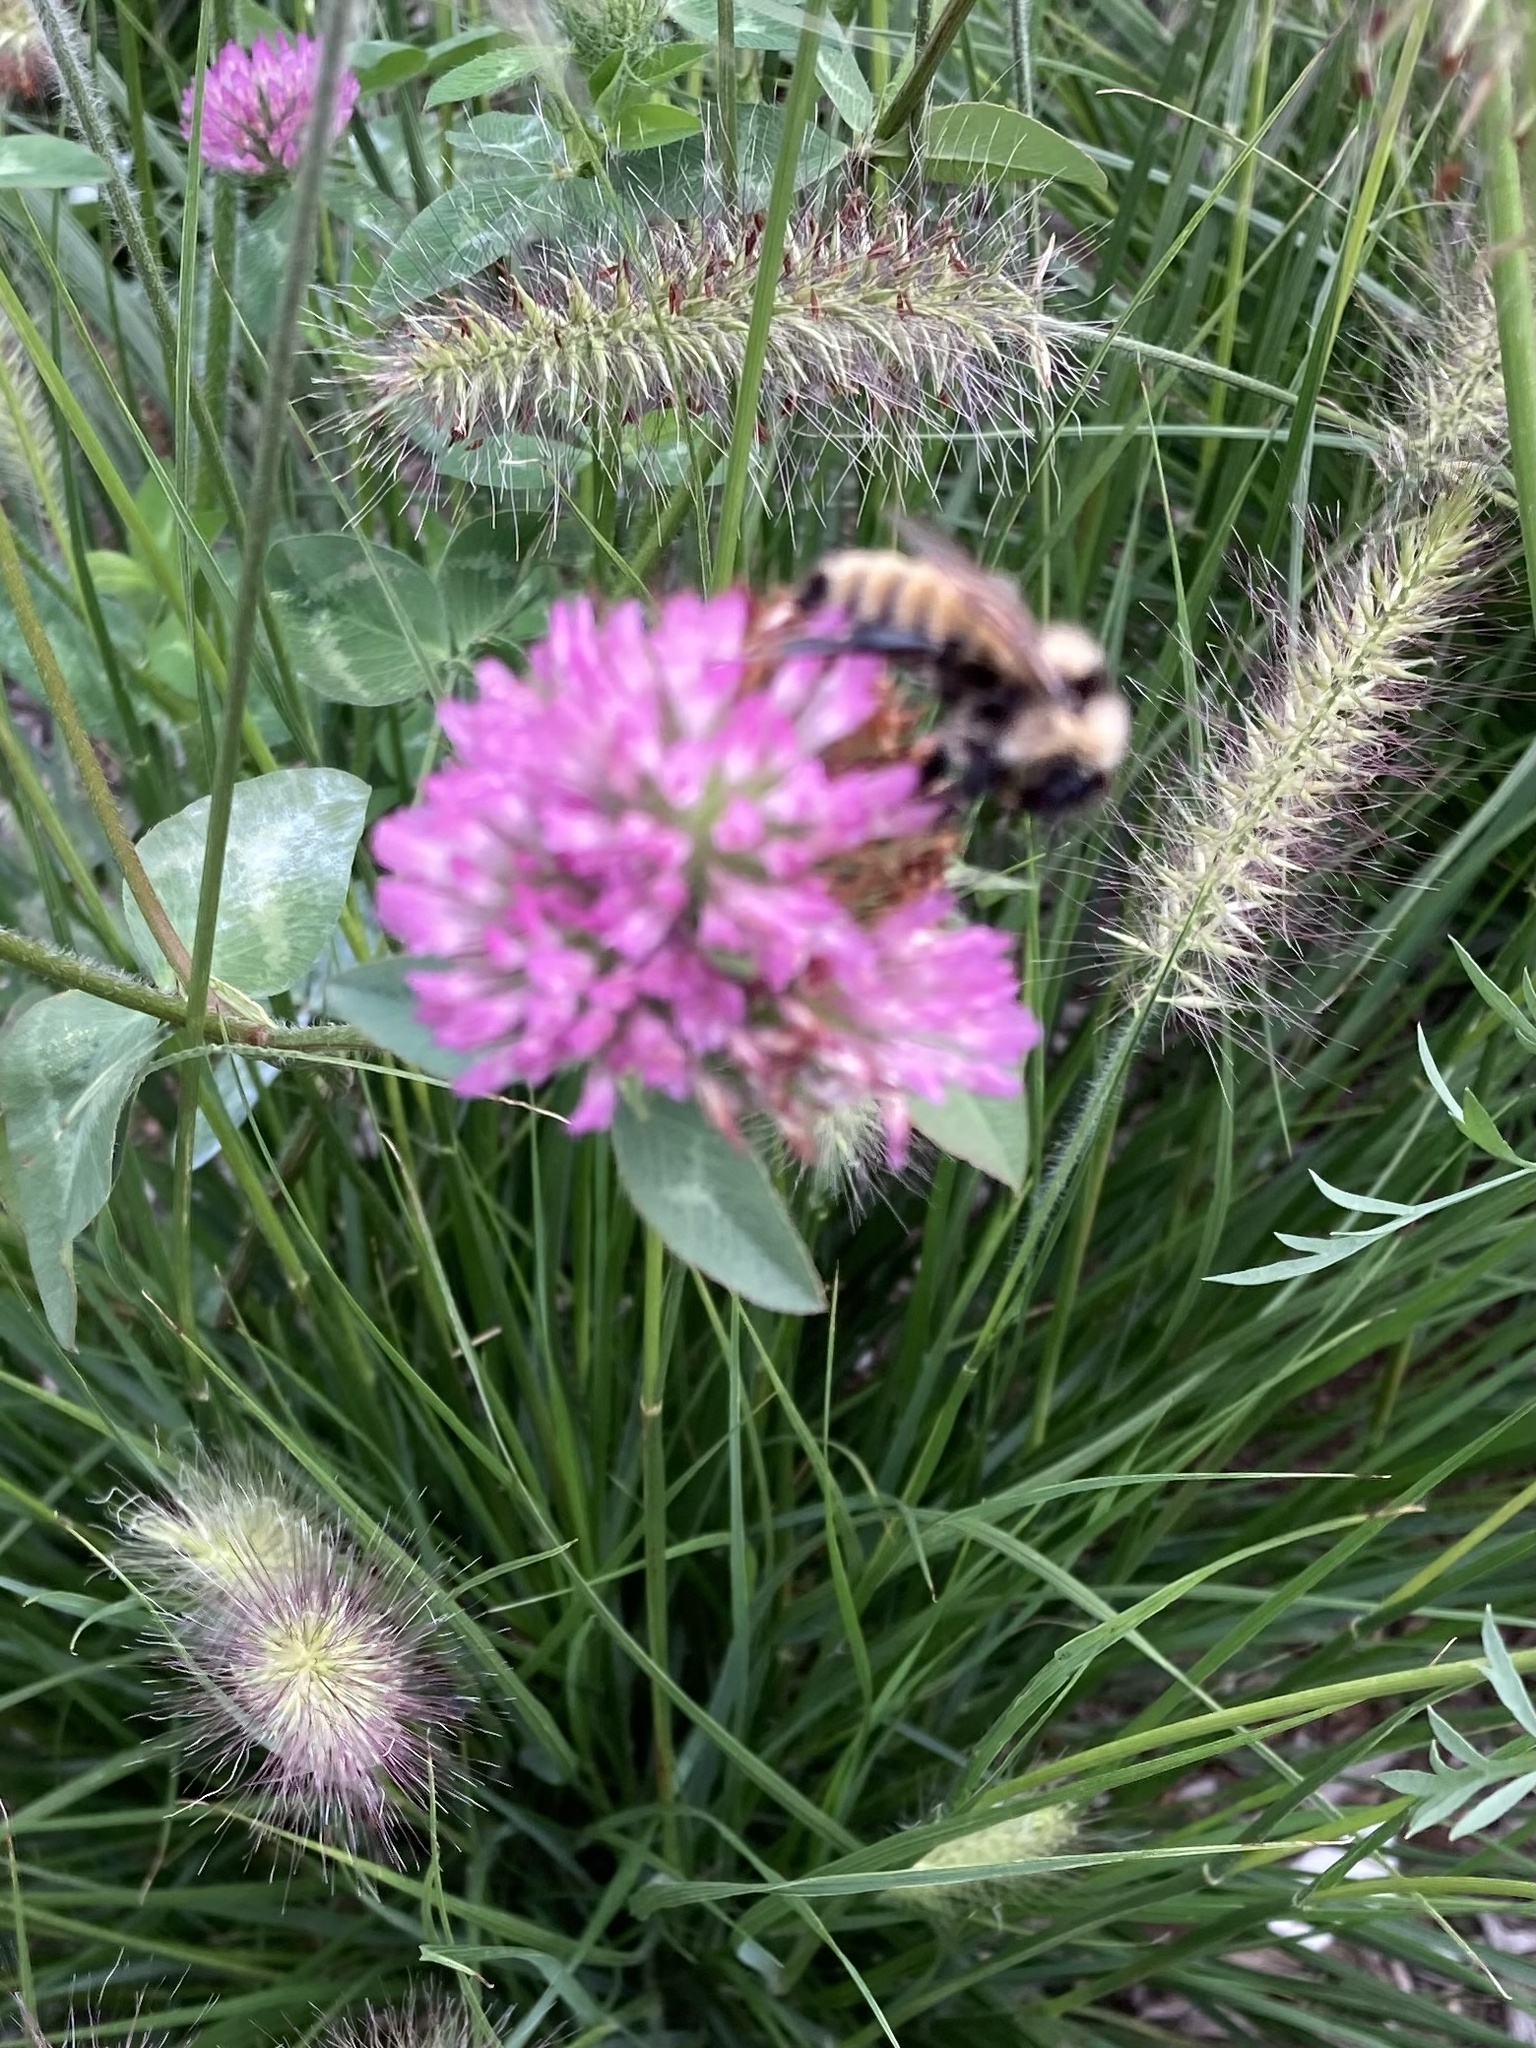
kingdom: Animalia
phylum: Arthropoda
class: Insecta
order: Hymenoptera
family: Apidae
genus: Bombus
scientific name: Bombus fervidus
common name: Yellow bumble bee
